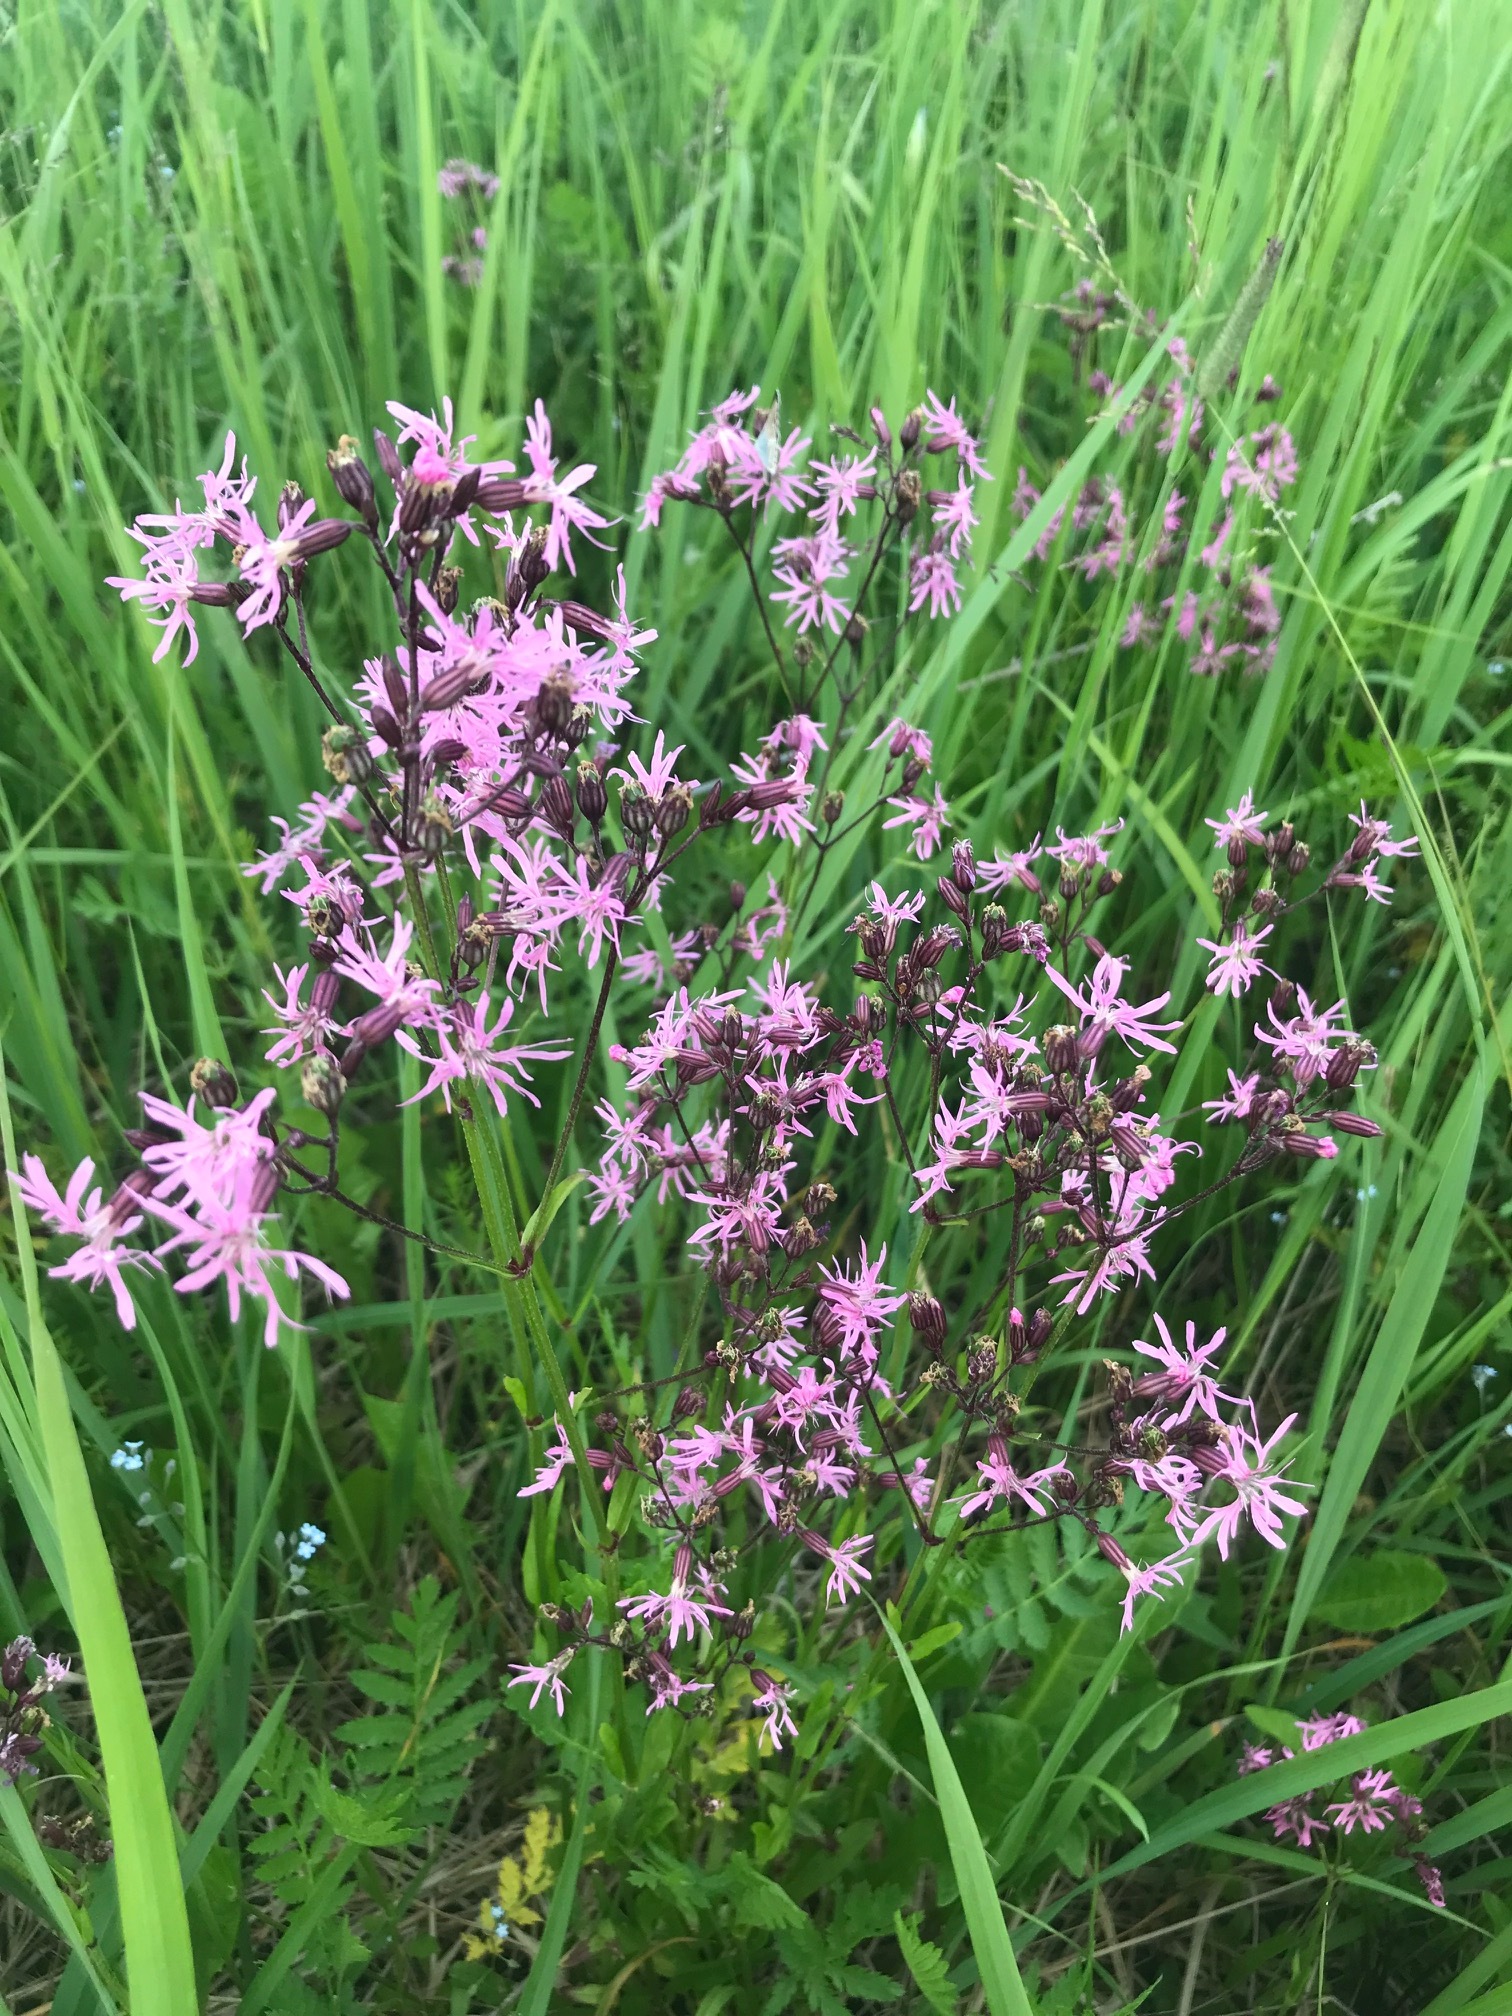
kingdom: Plantae
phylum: Tracheophyta
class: Magnoliopsida
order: Caryophyllales
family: Caryophyllaceae
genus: Silene
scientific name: Silene flos-cuculi
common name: Ragged-robin
